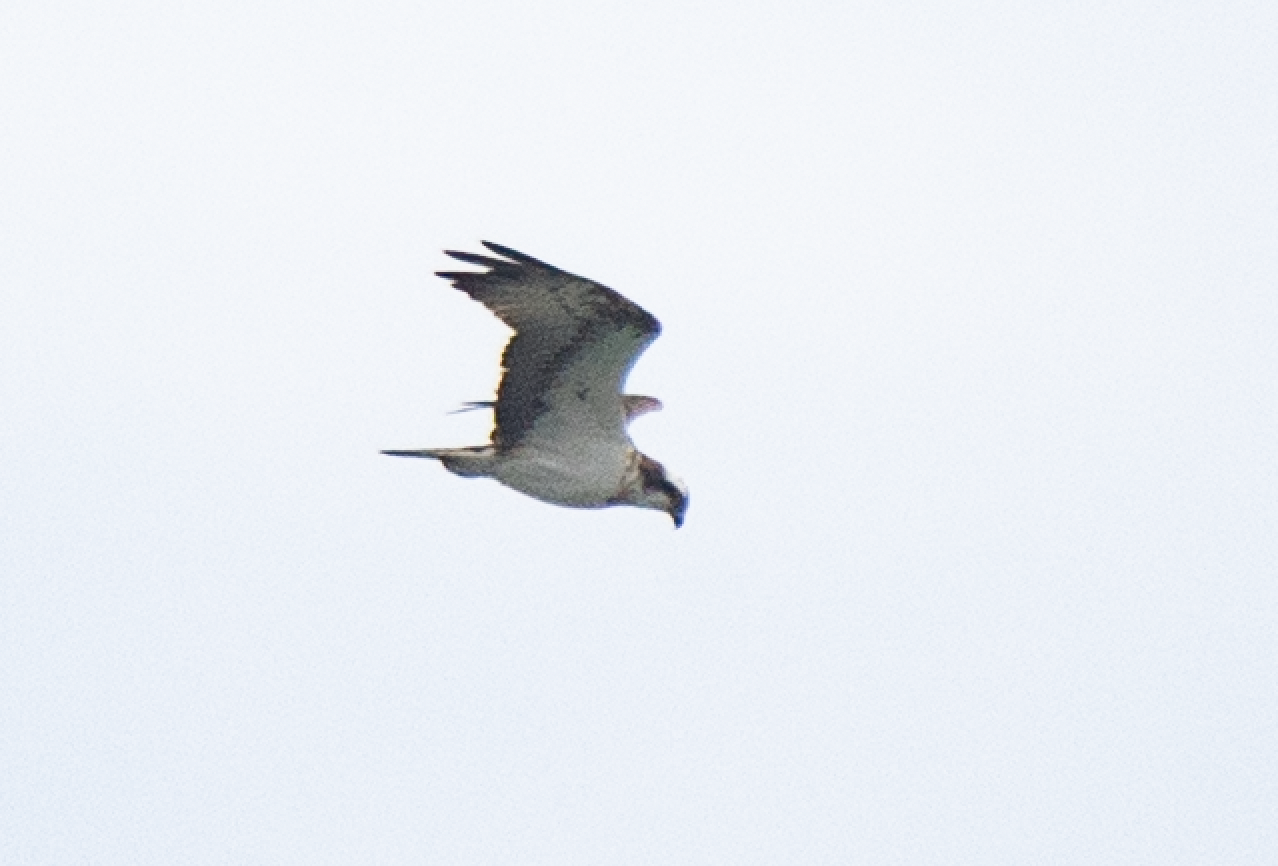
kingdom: Animalia
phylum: Chordata
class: Aves
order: Accipitriformes
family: Pandionidae
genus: Pandion
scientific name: Pandion haliaetus
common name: Osprey
